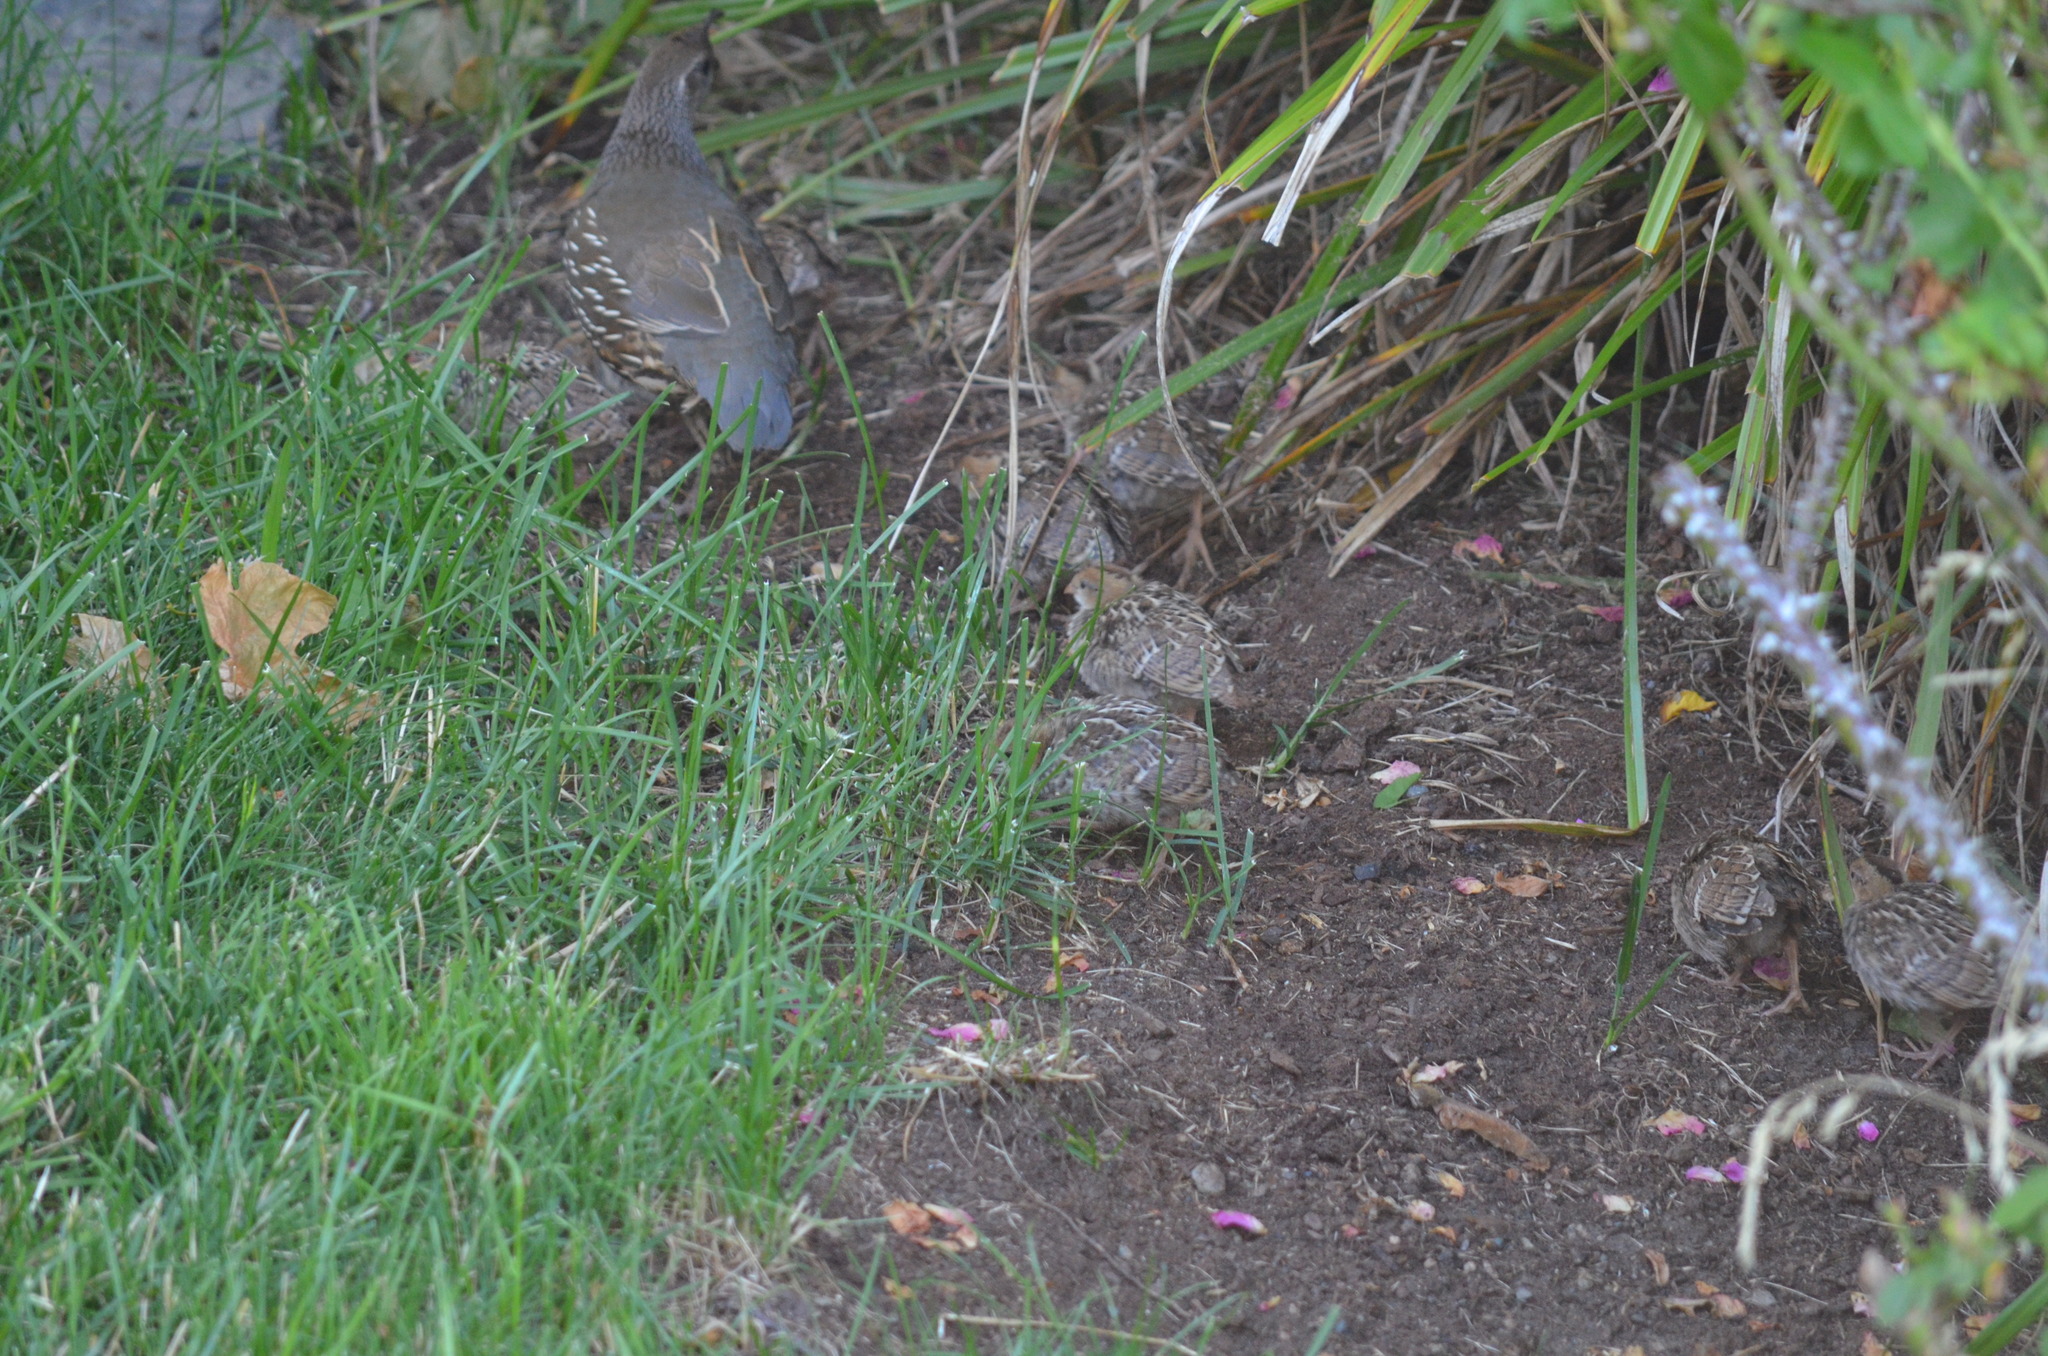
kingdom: Animalia
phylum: Chordata
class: Aves
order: Galliformes
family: Odontophoridae
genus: Callipepla
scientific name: Callipepla californica
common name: California quail
